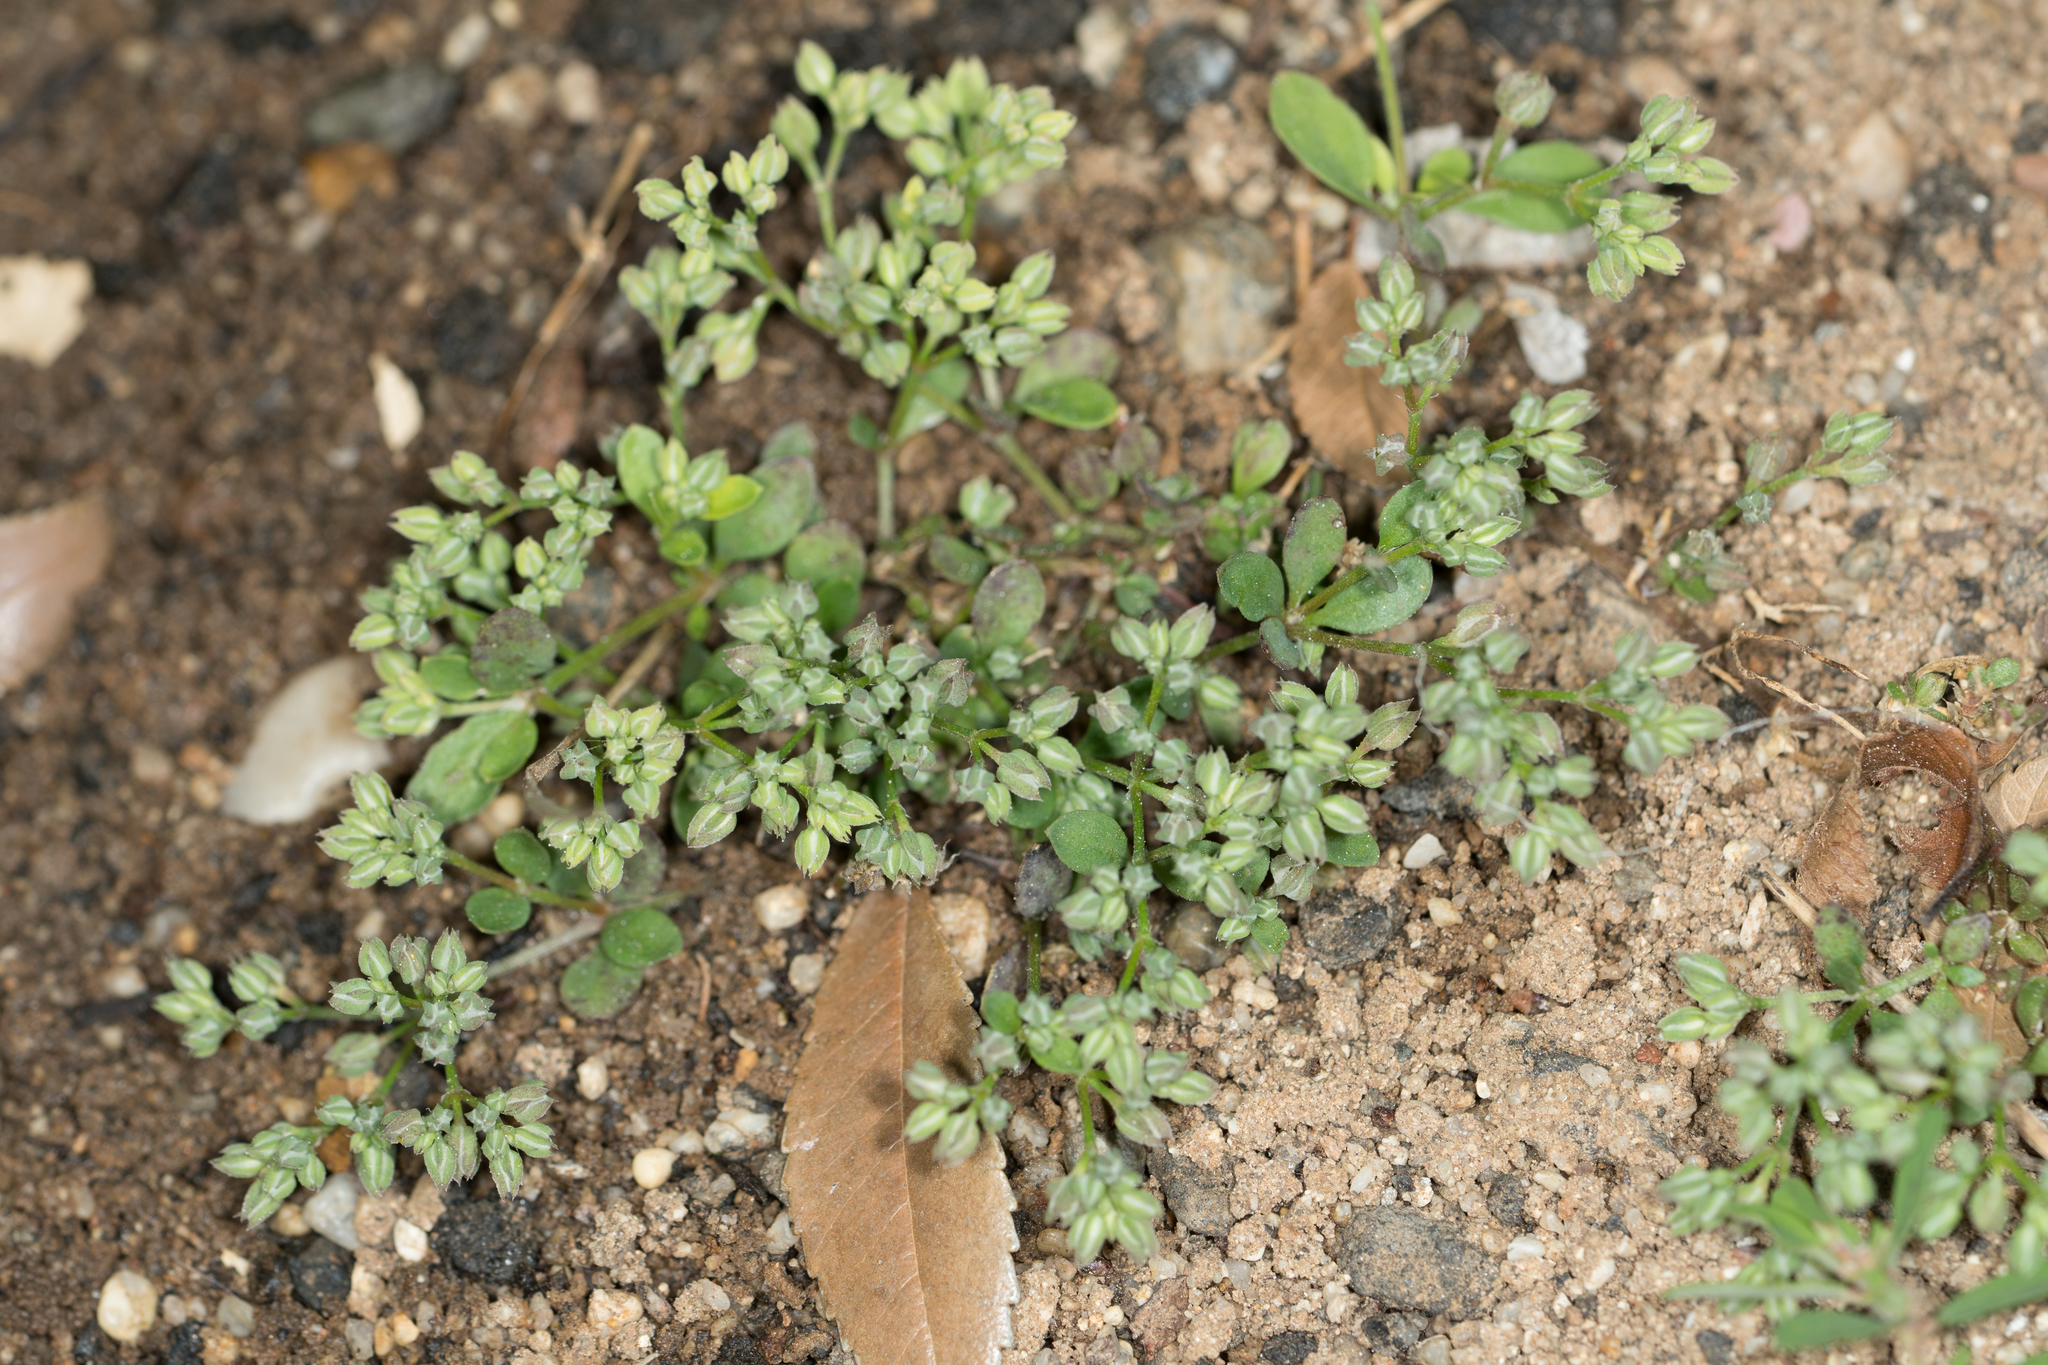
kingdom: Plantae
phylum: Tracheophyta
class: Magnoliopsida
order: Caryophyllales
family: Caryophyllaceae
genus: Polycarpon
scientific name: Polycarpon tetraphyllum
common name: Four-leaved all-seed
